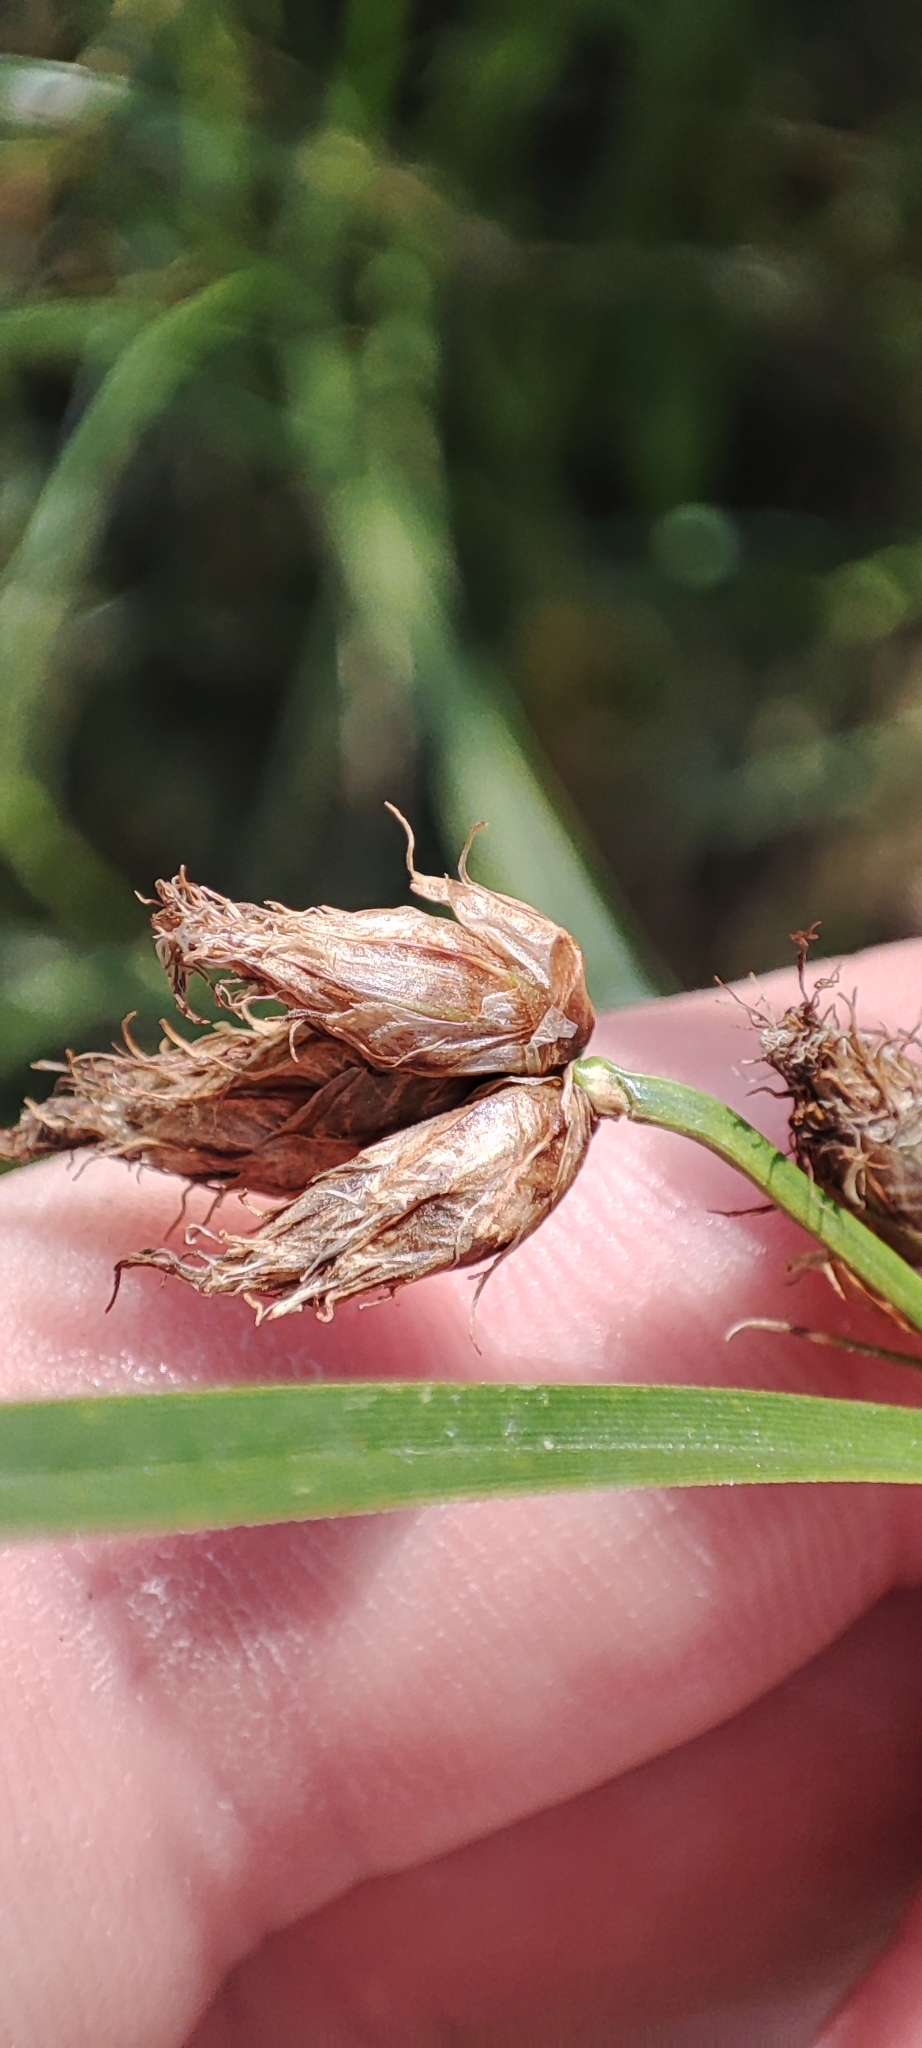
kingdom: Plantae
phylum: Tracheophyta
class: Liliopsida
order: Poales
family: Cyperaceae
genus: Bolboschoenus
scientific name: Bolboschoenus maritimus
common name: Sea club-rush
